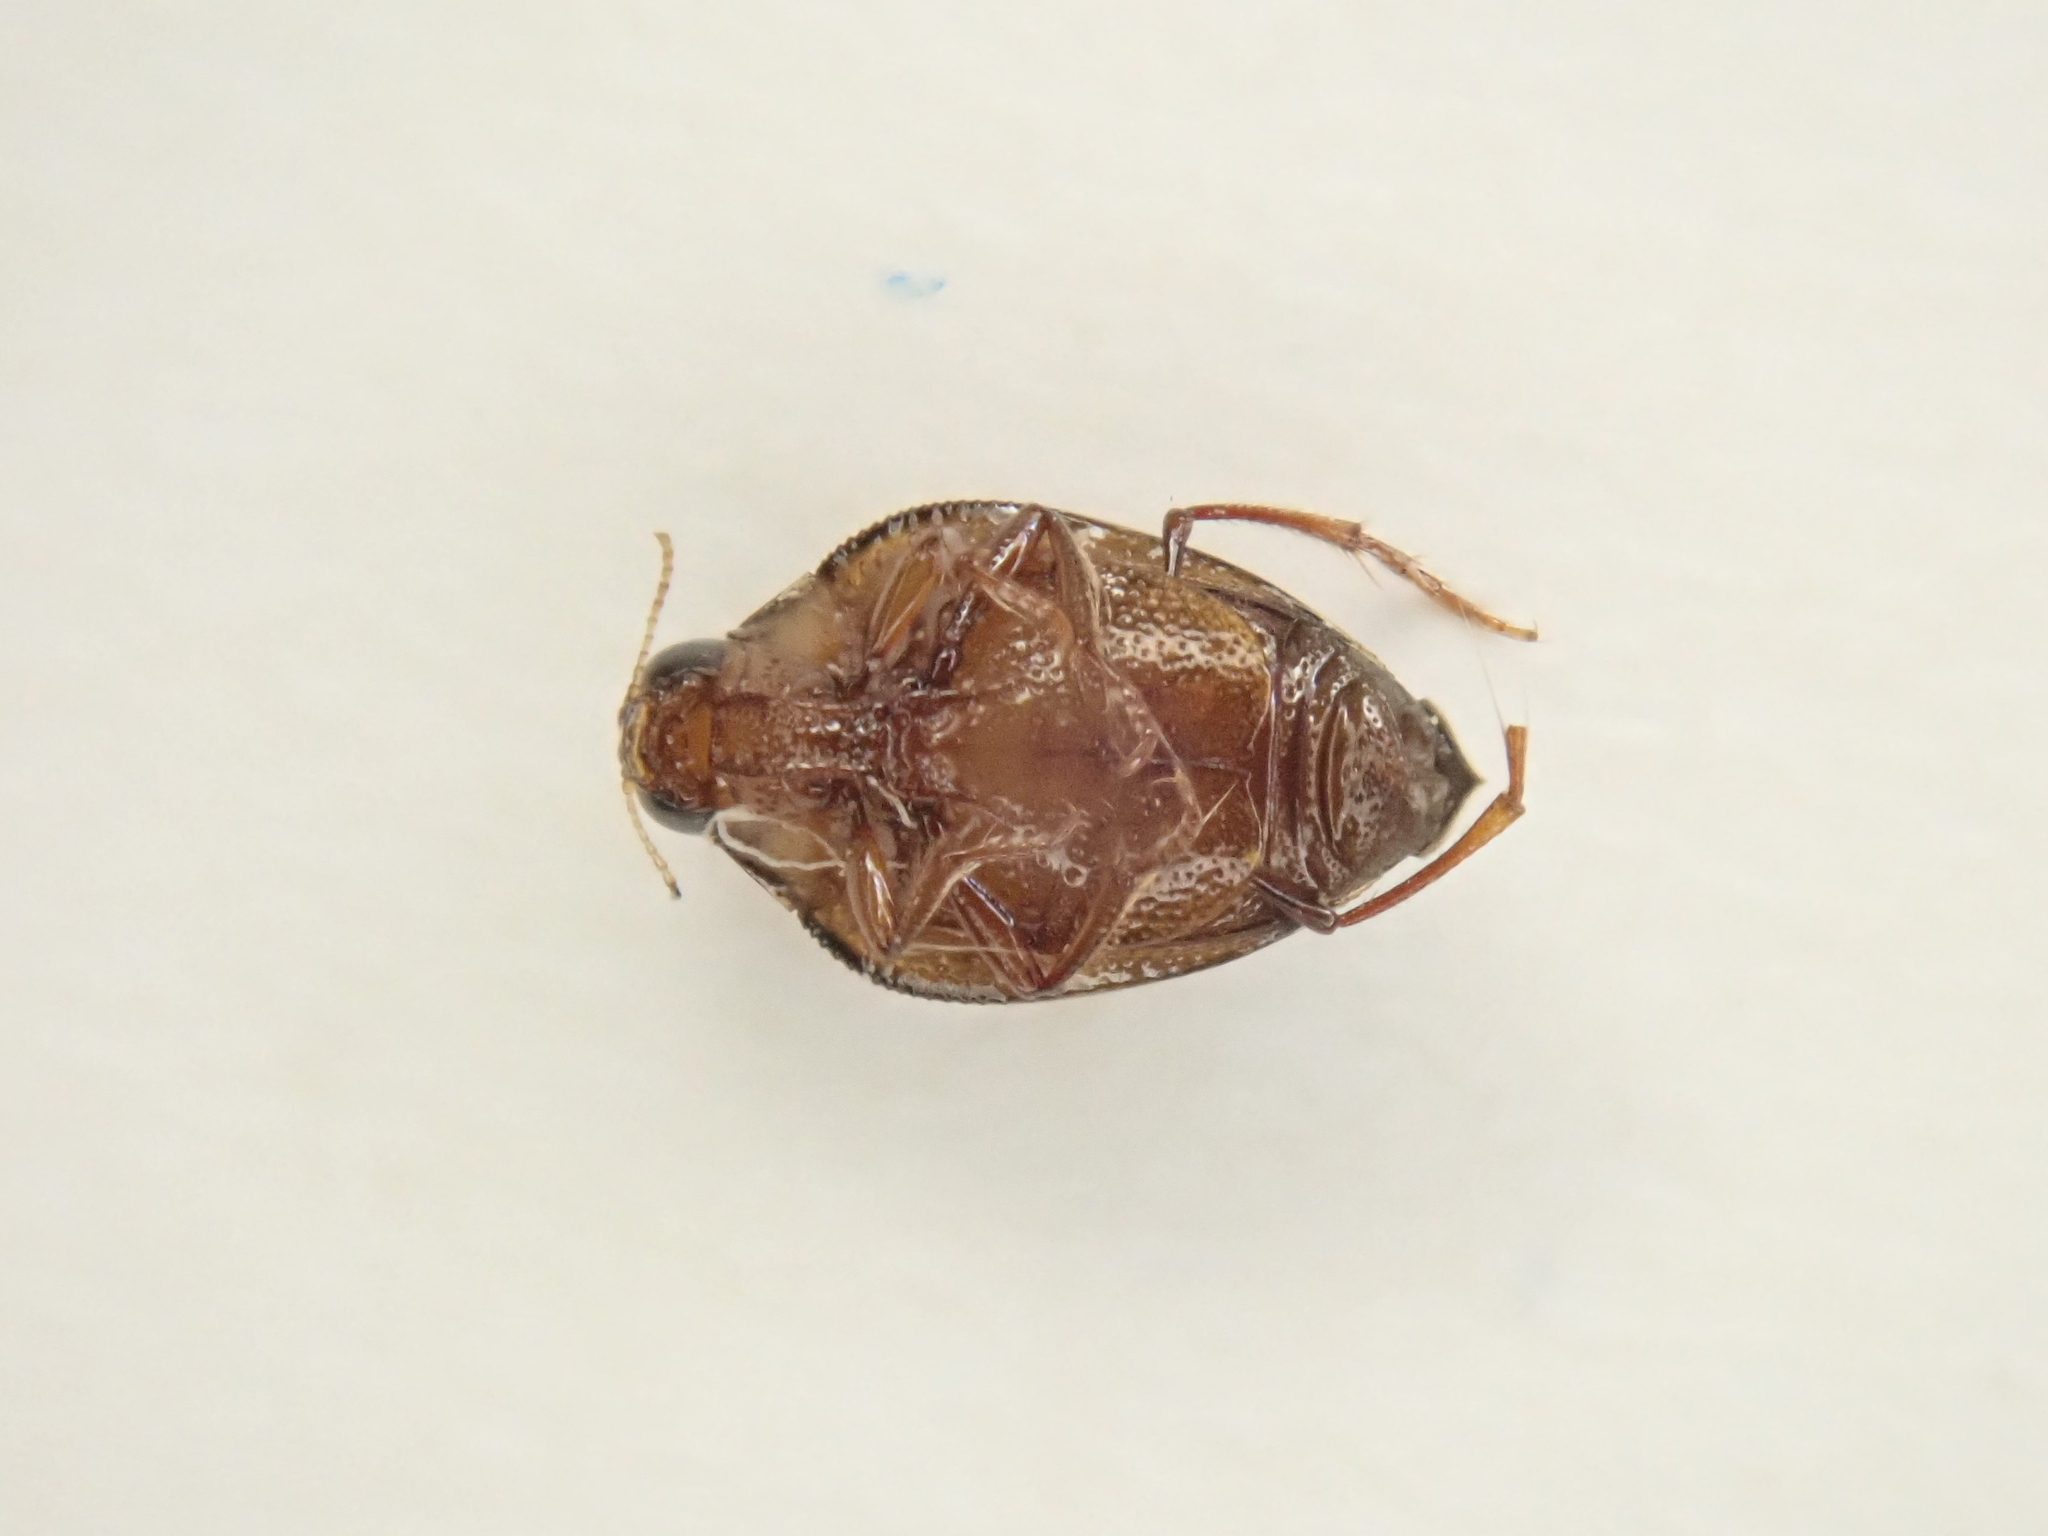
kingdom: Animalia
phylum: Arthropoda
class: Insecta
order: Coleoptera
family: Haliplidae
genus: Haliplus
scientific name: Haliplus tumidus
